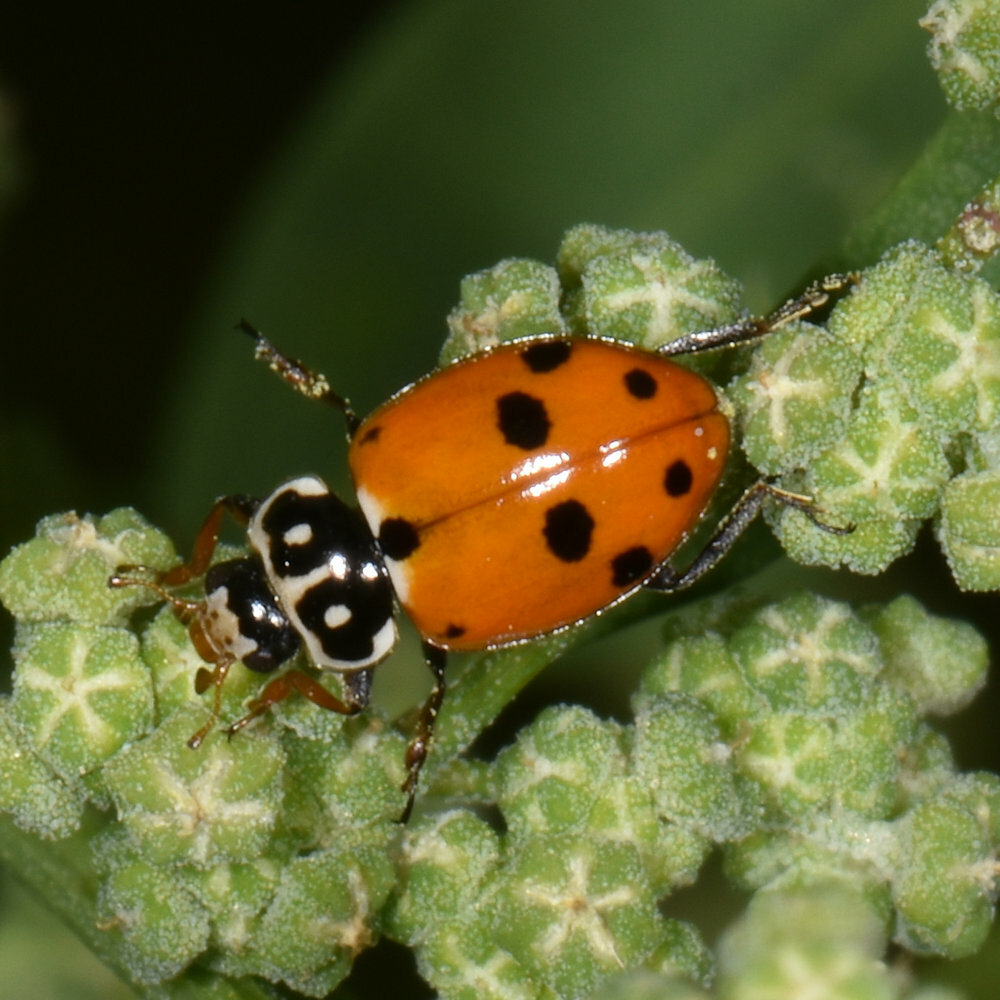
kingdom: Animalia
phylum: Arthropoda
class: Insecta
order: Coleoptera
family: Coccinellidae
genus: Hippodamia
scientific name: Hippodamia variegata
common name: Ladybird beetle
